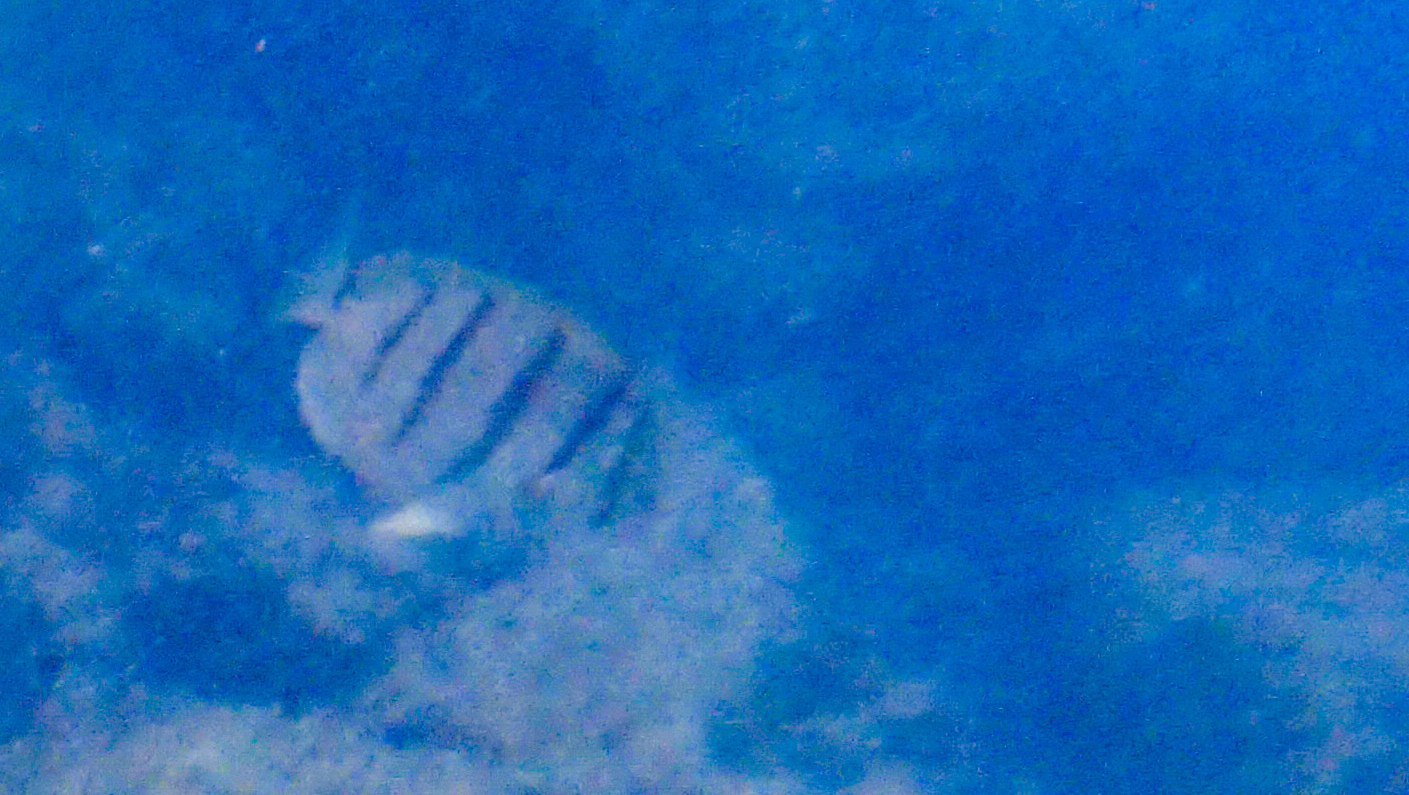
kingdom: Animalia
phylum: Chordata
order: Perciformes
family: Acanthuridae
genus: Acanthurus
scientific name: Acanthurus triostegus
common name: Convict surgeonfish
